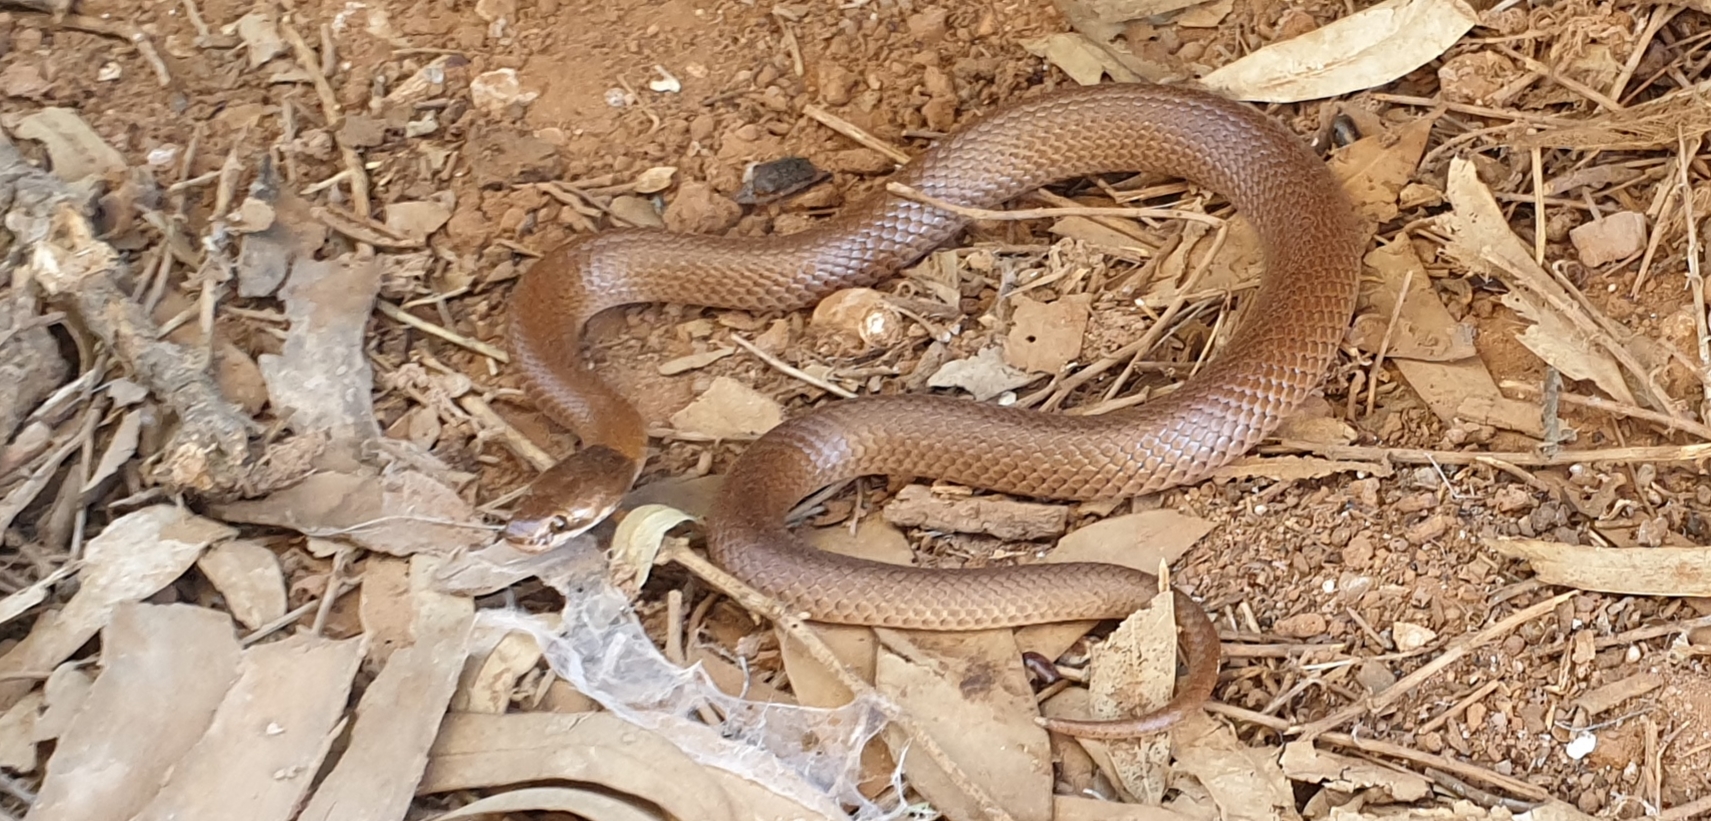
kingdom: Animalia
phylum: Chordata
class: Squamata
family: Elapidae
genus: Suta
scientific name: Suta suta
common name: Curl snake
